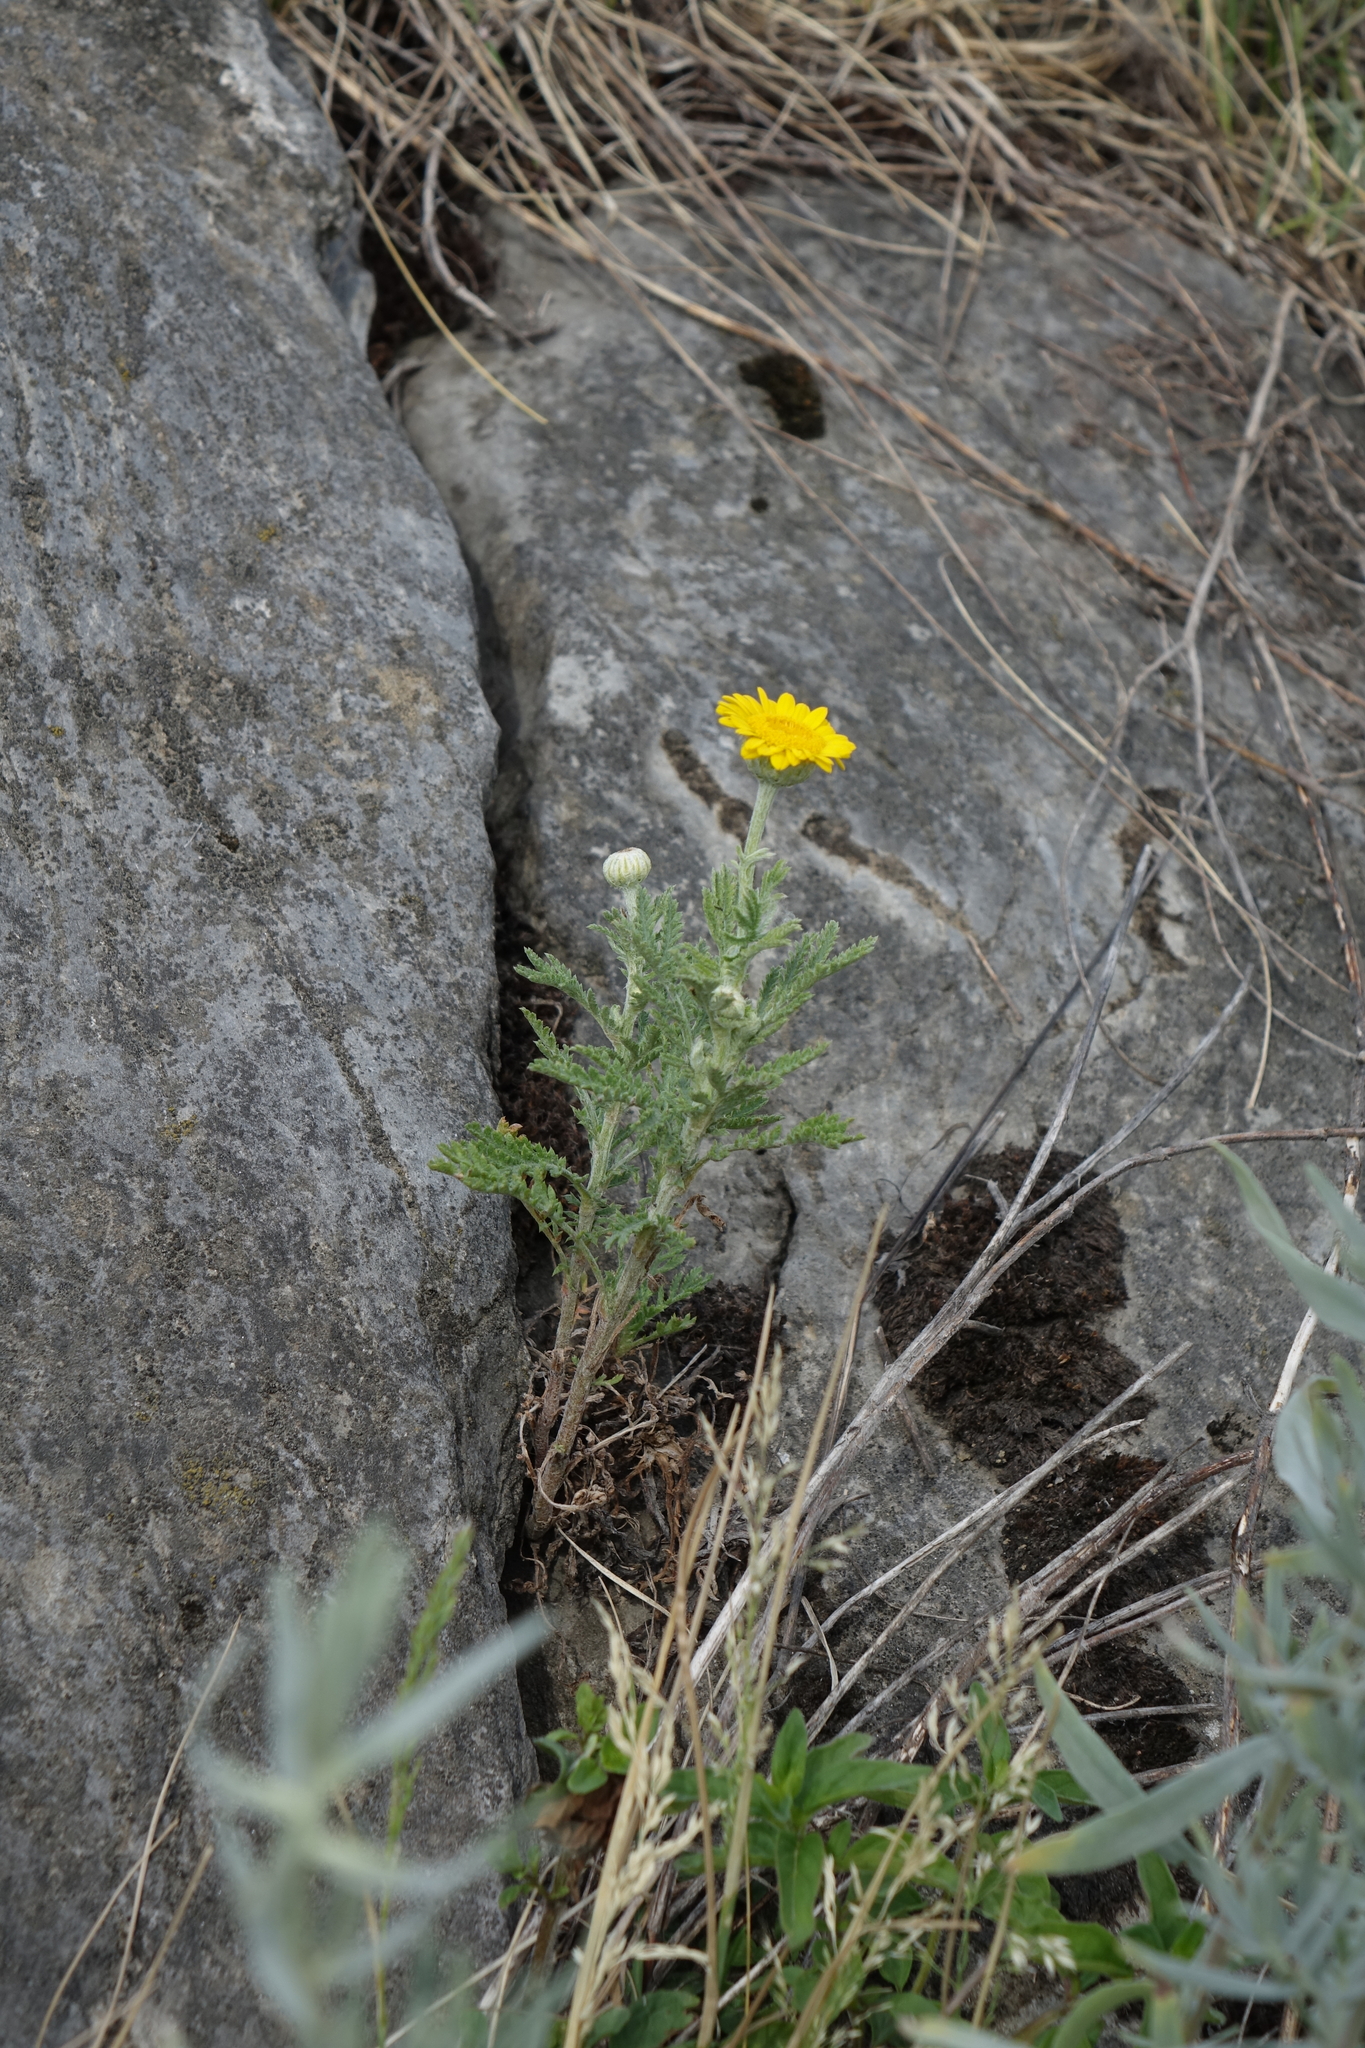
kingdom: Plantae
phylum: Tracheophyta
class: Magnoliopsida
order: Asterales
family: Asteraceae
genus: Cota
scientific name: Cota tinctoria
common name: Golden chamomile
